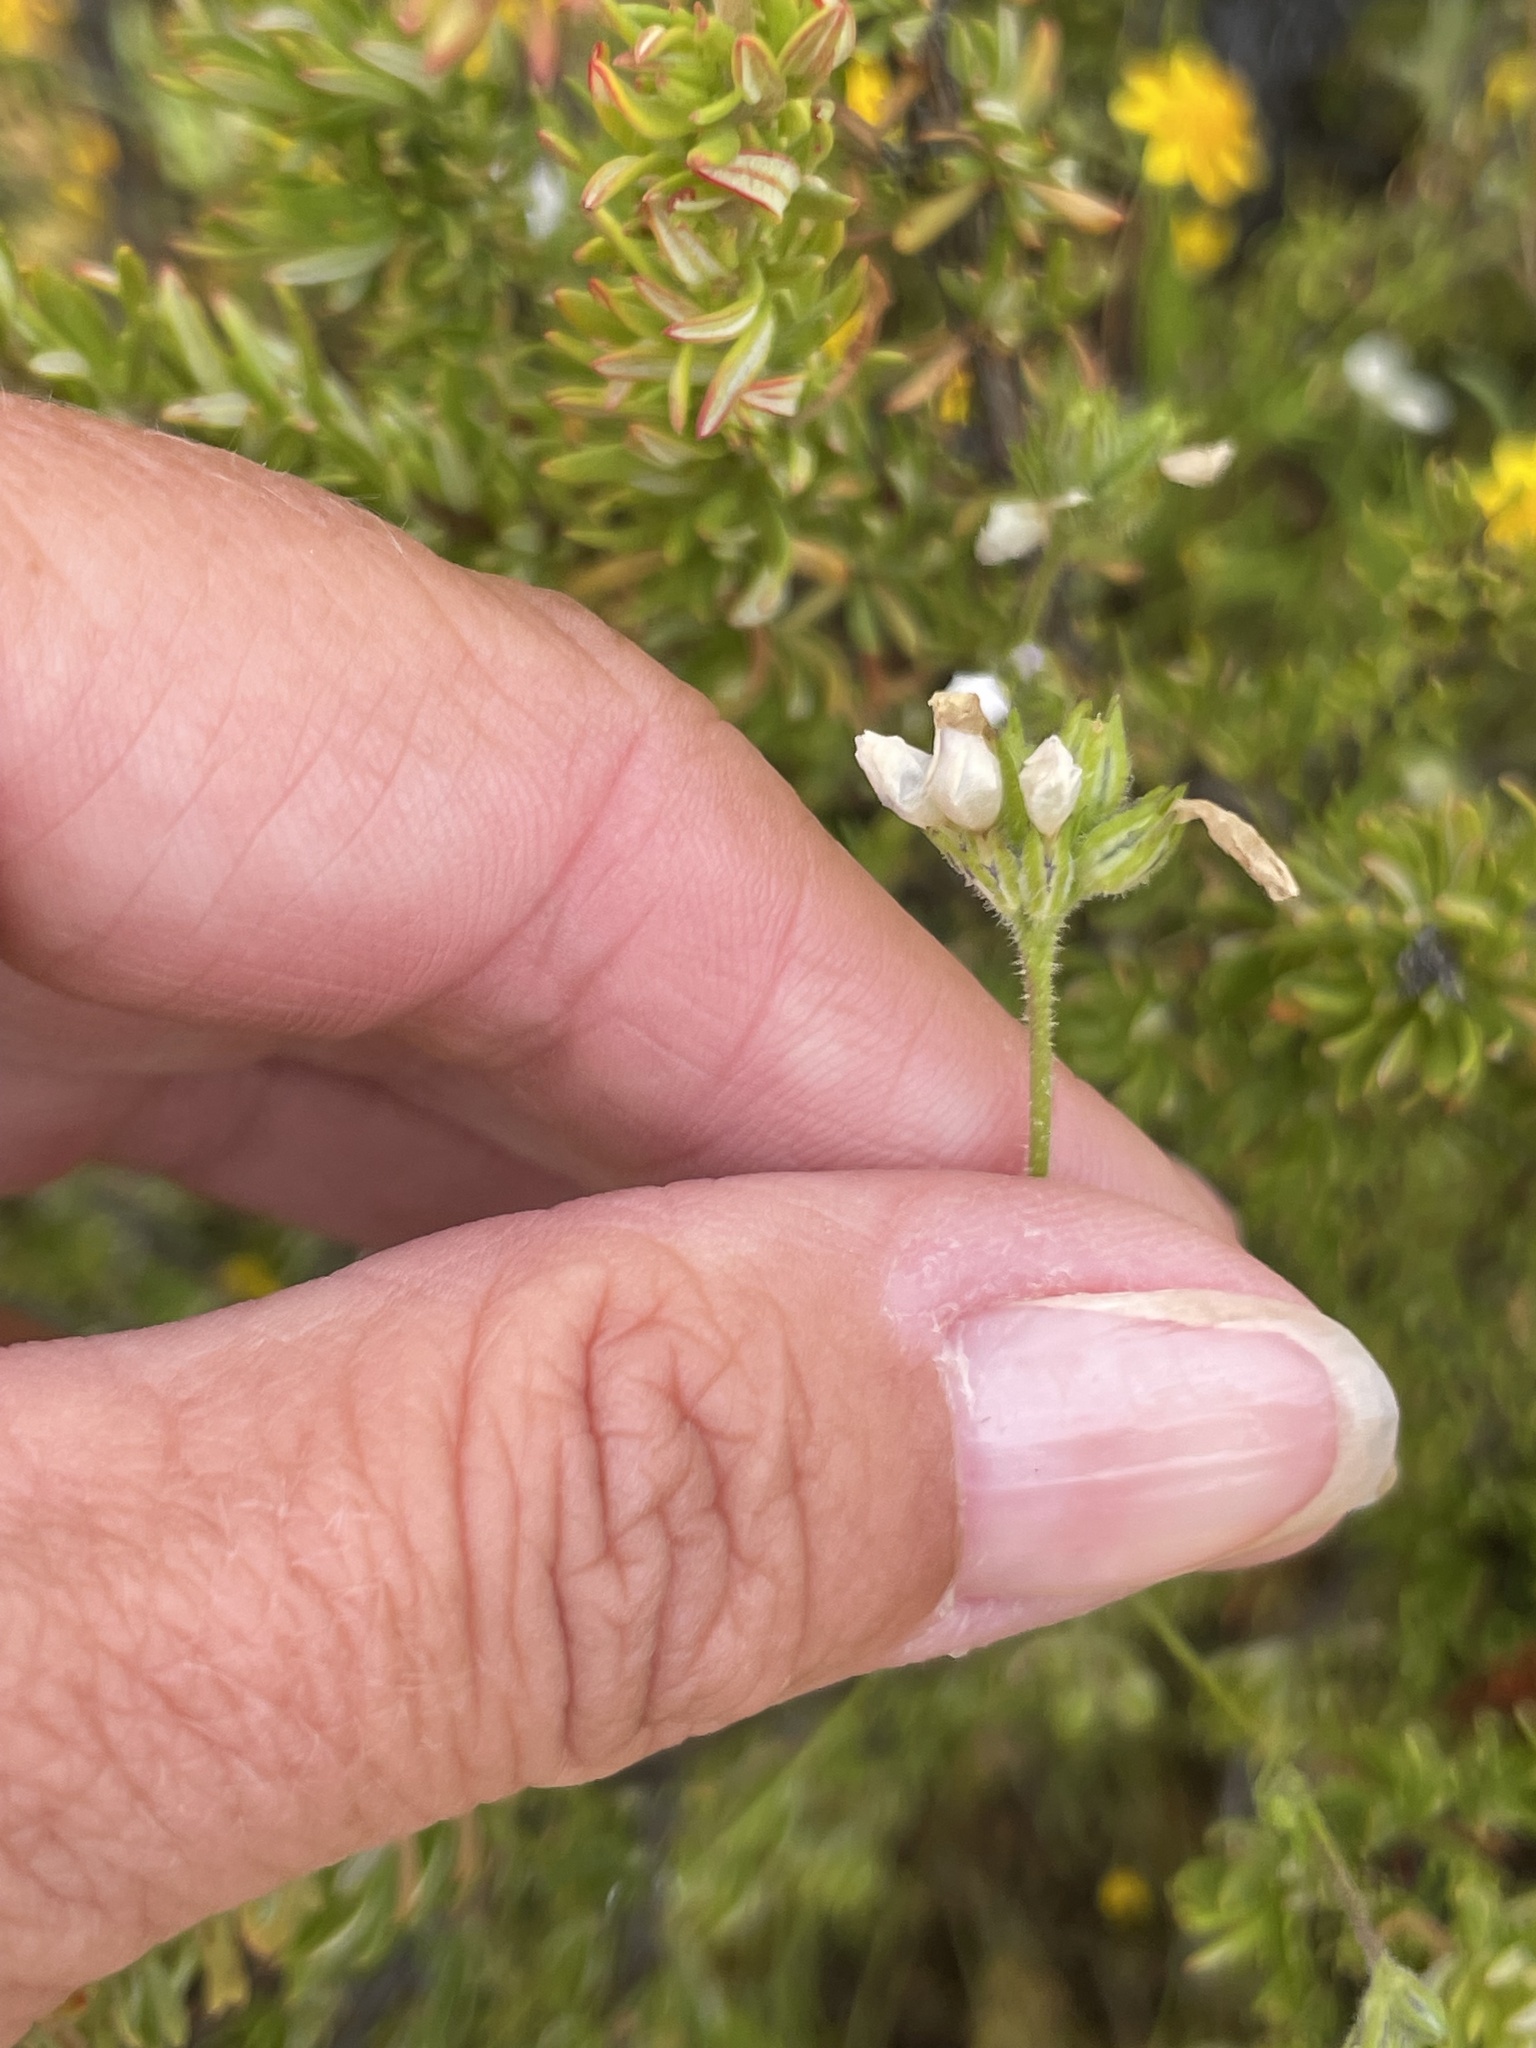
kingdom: Plantae
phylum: Tracheophyta
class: Magnoliopsida
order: Ericales
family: Polemoniaceae
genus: Gilia
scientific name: Gilia angelensis
